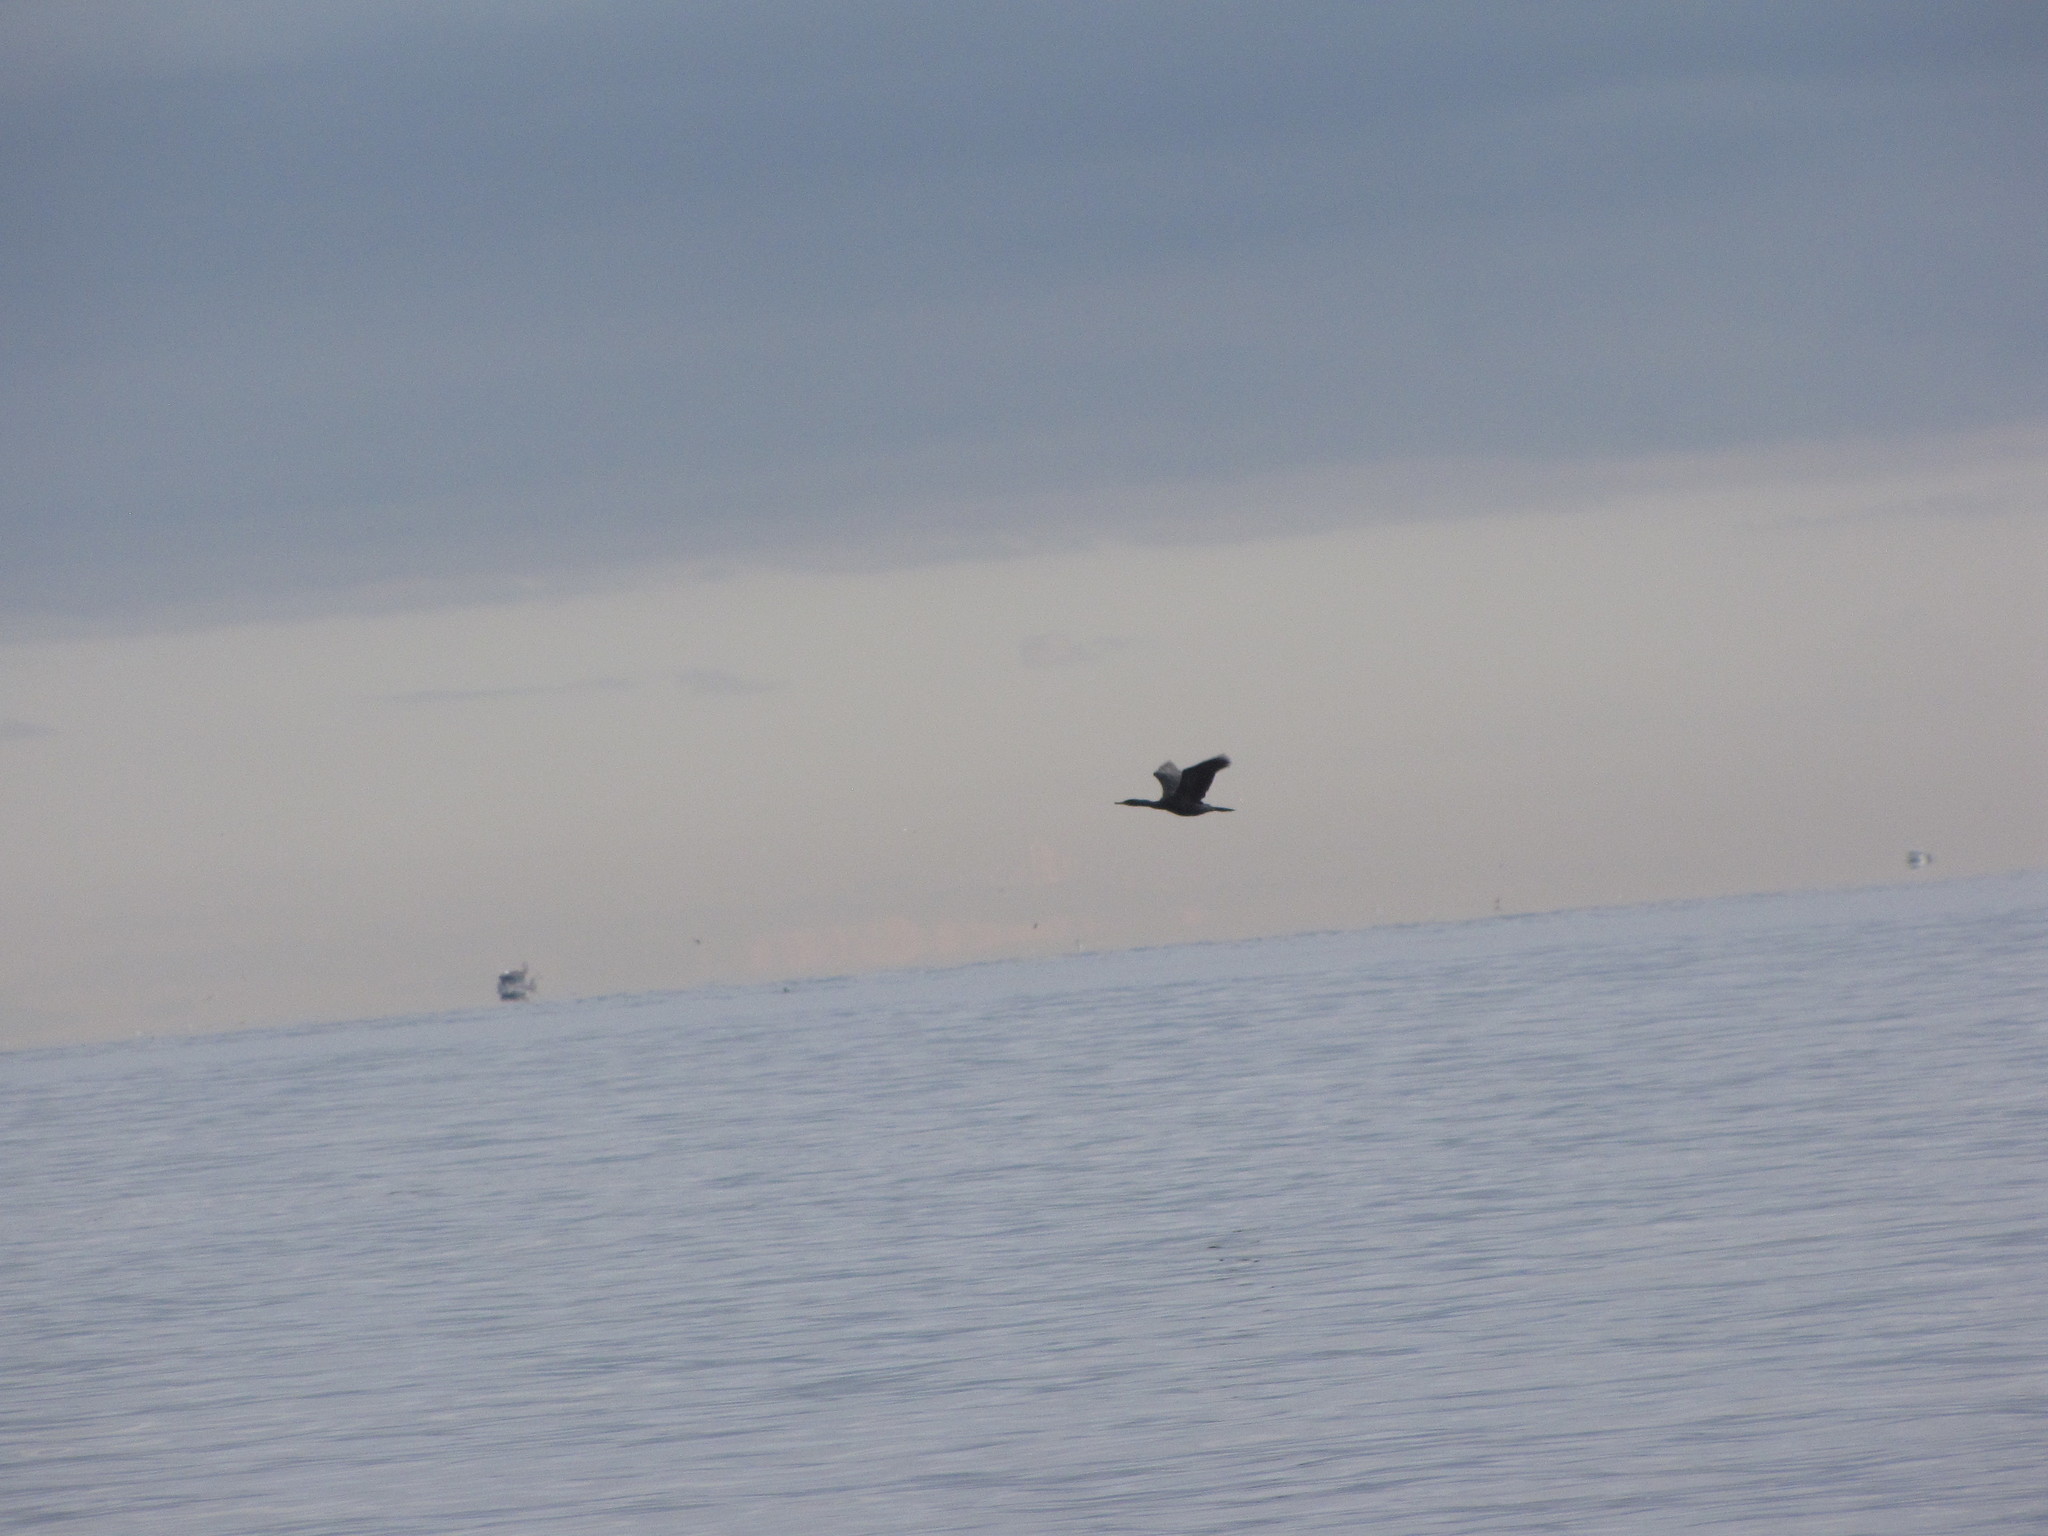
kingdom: Animalia
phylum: Chordata
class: Aves
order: Suliformes
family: Phalacrocoracidae
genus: Phalacrocorax
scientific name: Phalacrocorax pelagicus
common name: Pelagic cormorant
